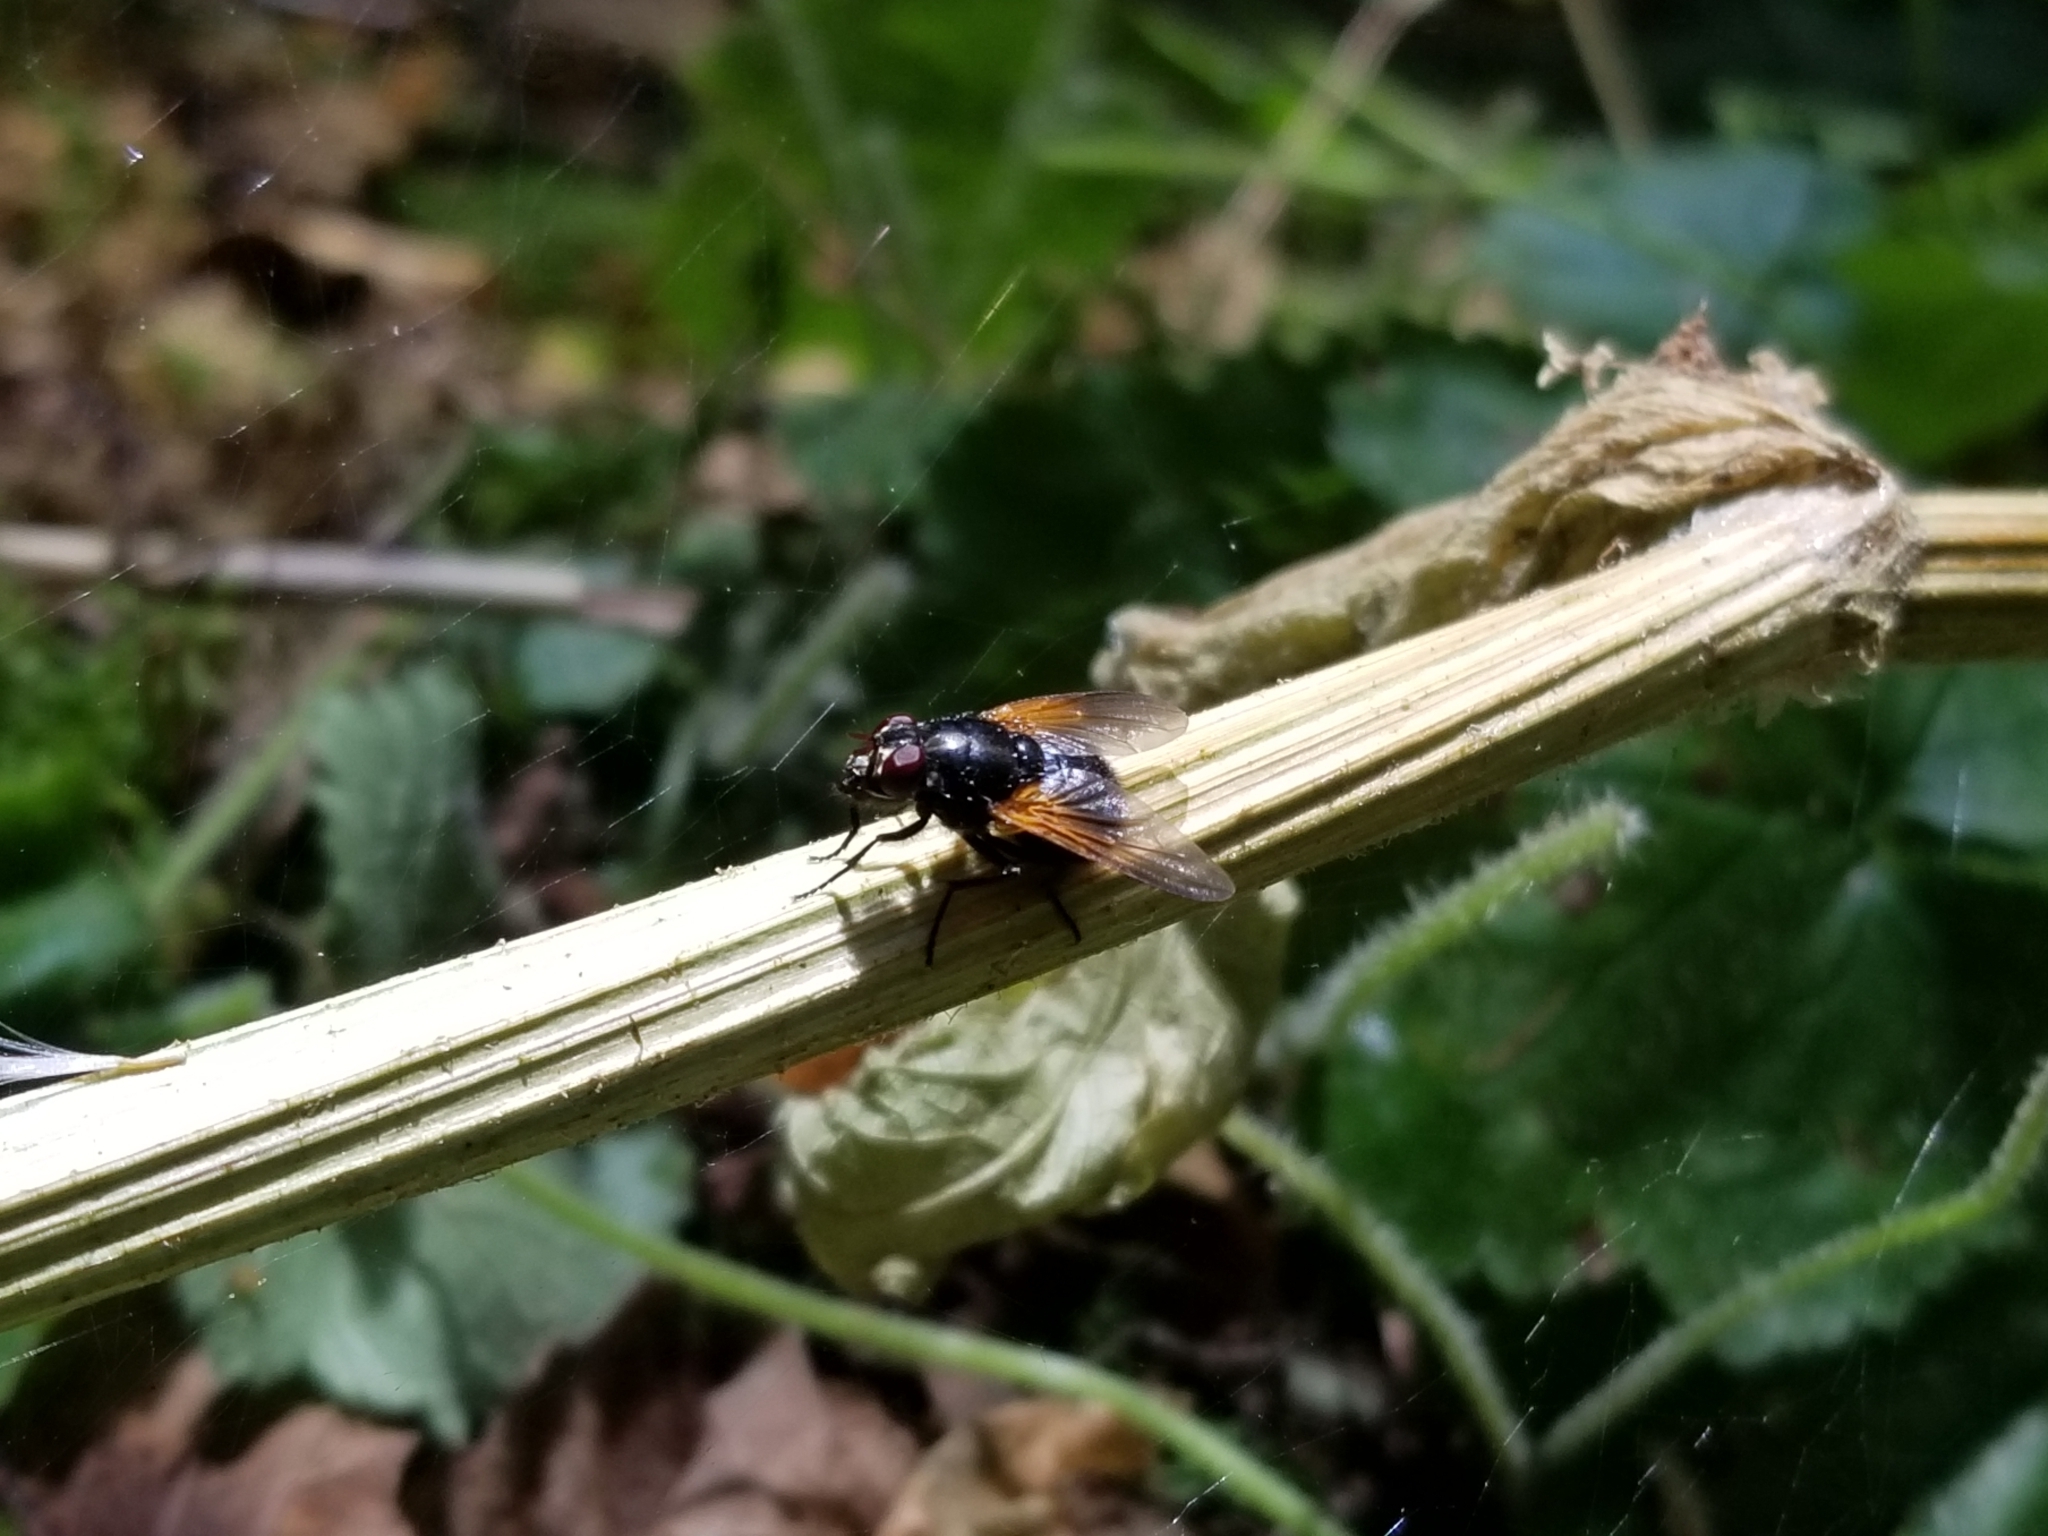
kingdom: Animalia
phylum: Arthropoda
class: Insecta
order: Diptera
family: Muscidae
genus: Mesembrina
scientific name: Mesembrina latreillii
